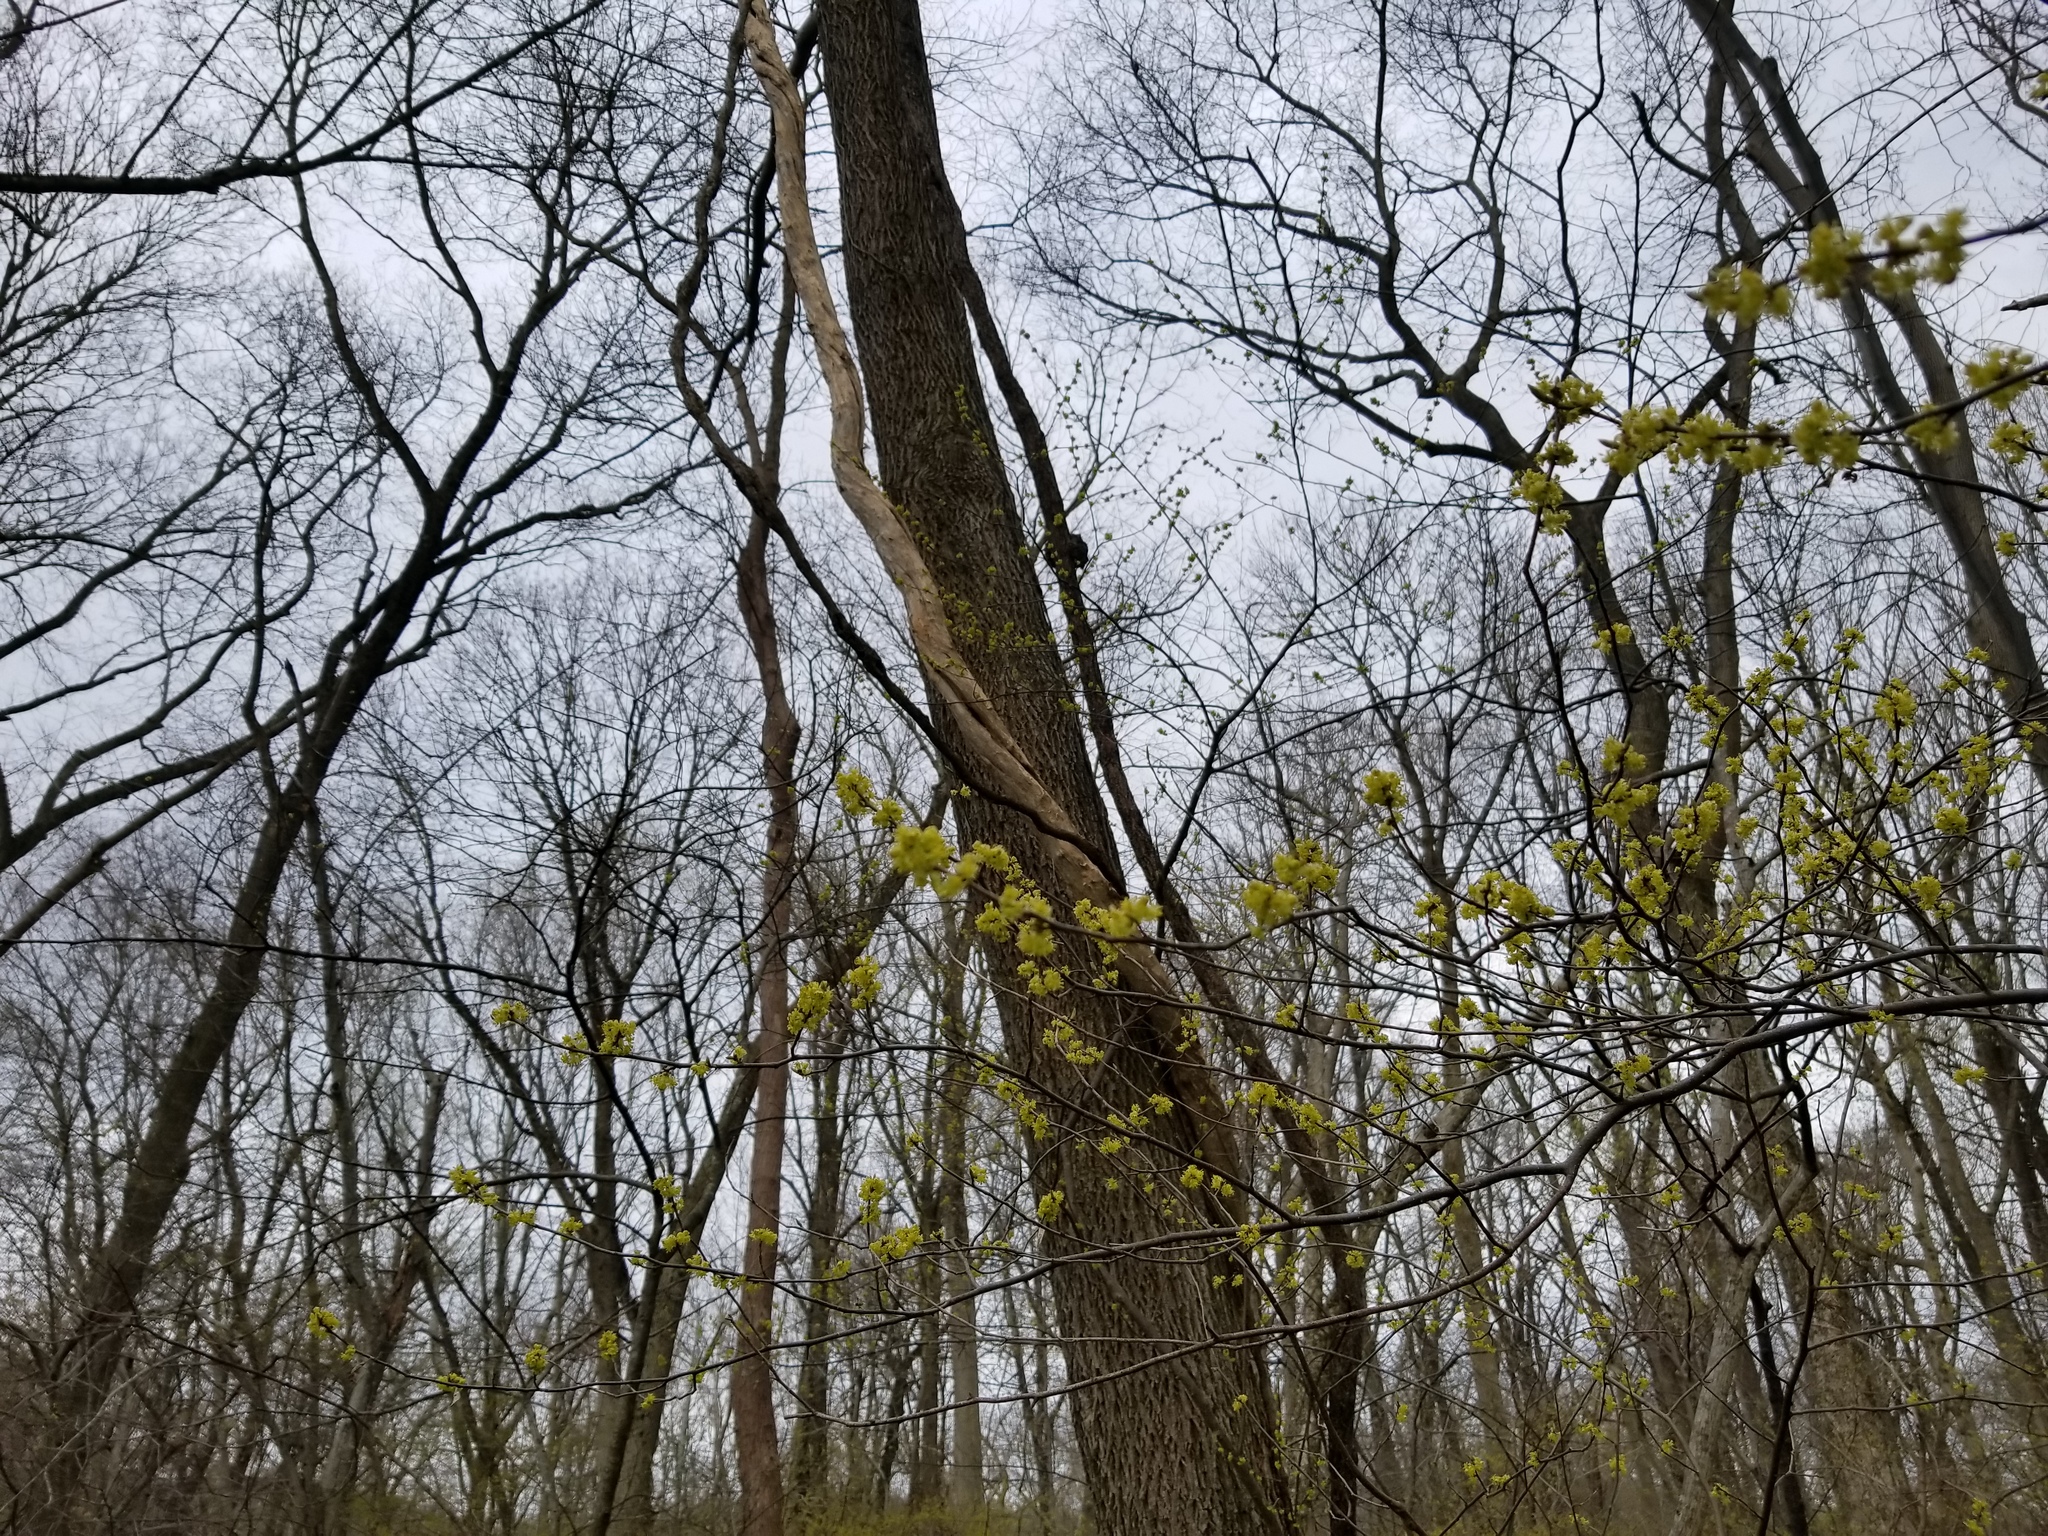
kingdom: Plantae
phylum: Tracheophyta
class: Magnoliopsida
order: Laurales
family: Lauraceae
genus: Lindera
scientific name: Lindera benzoin
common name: Spicebush
